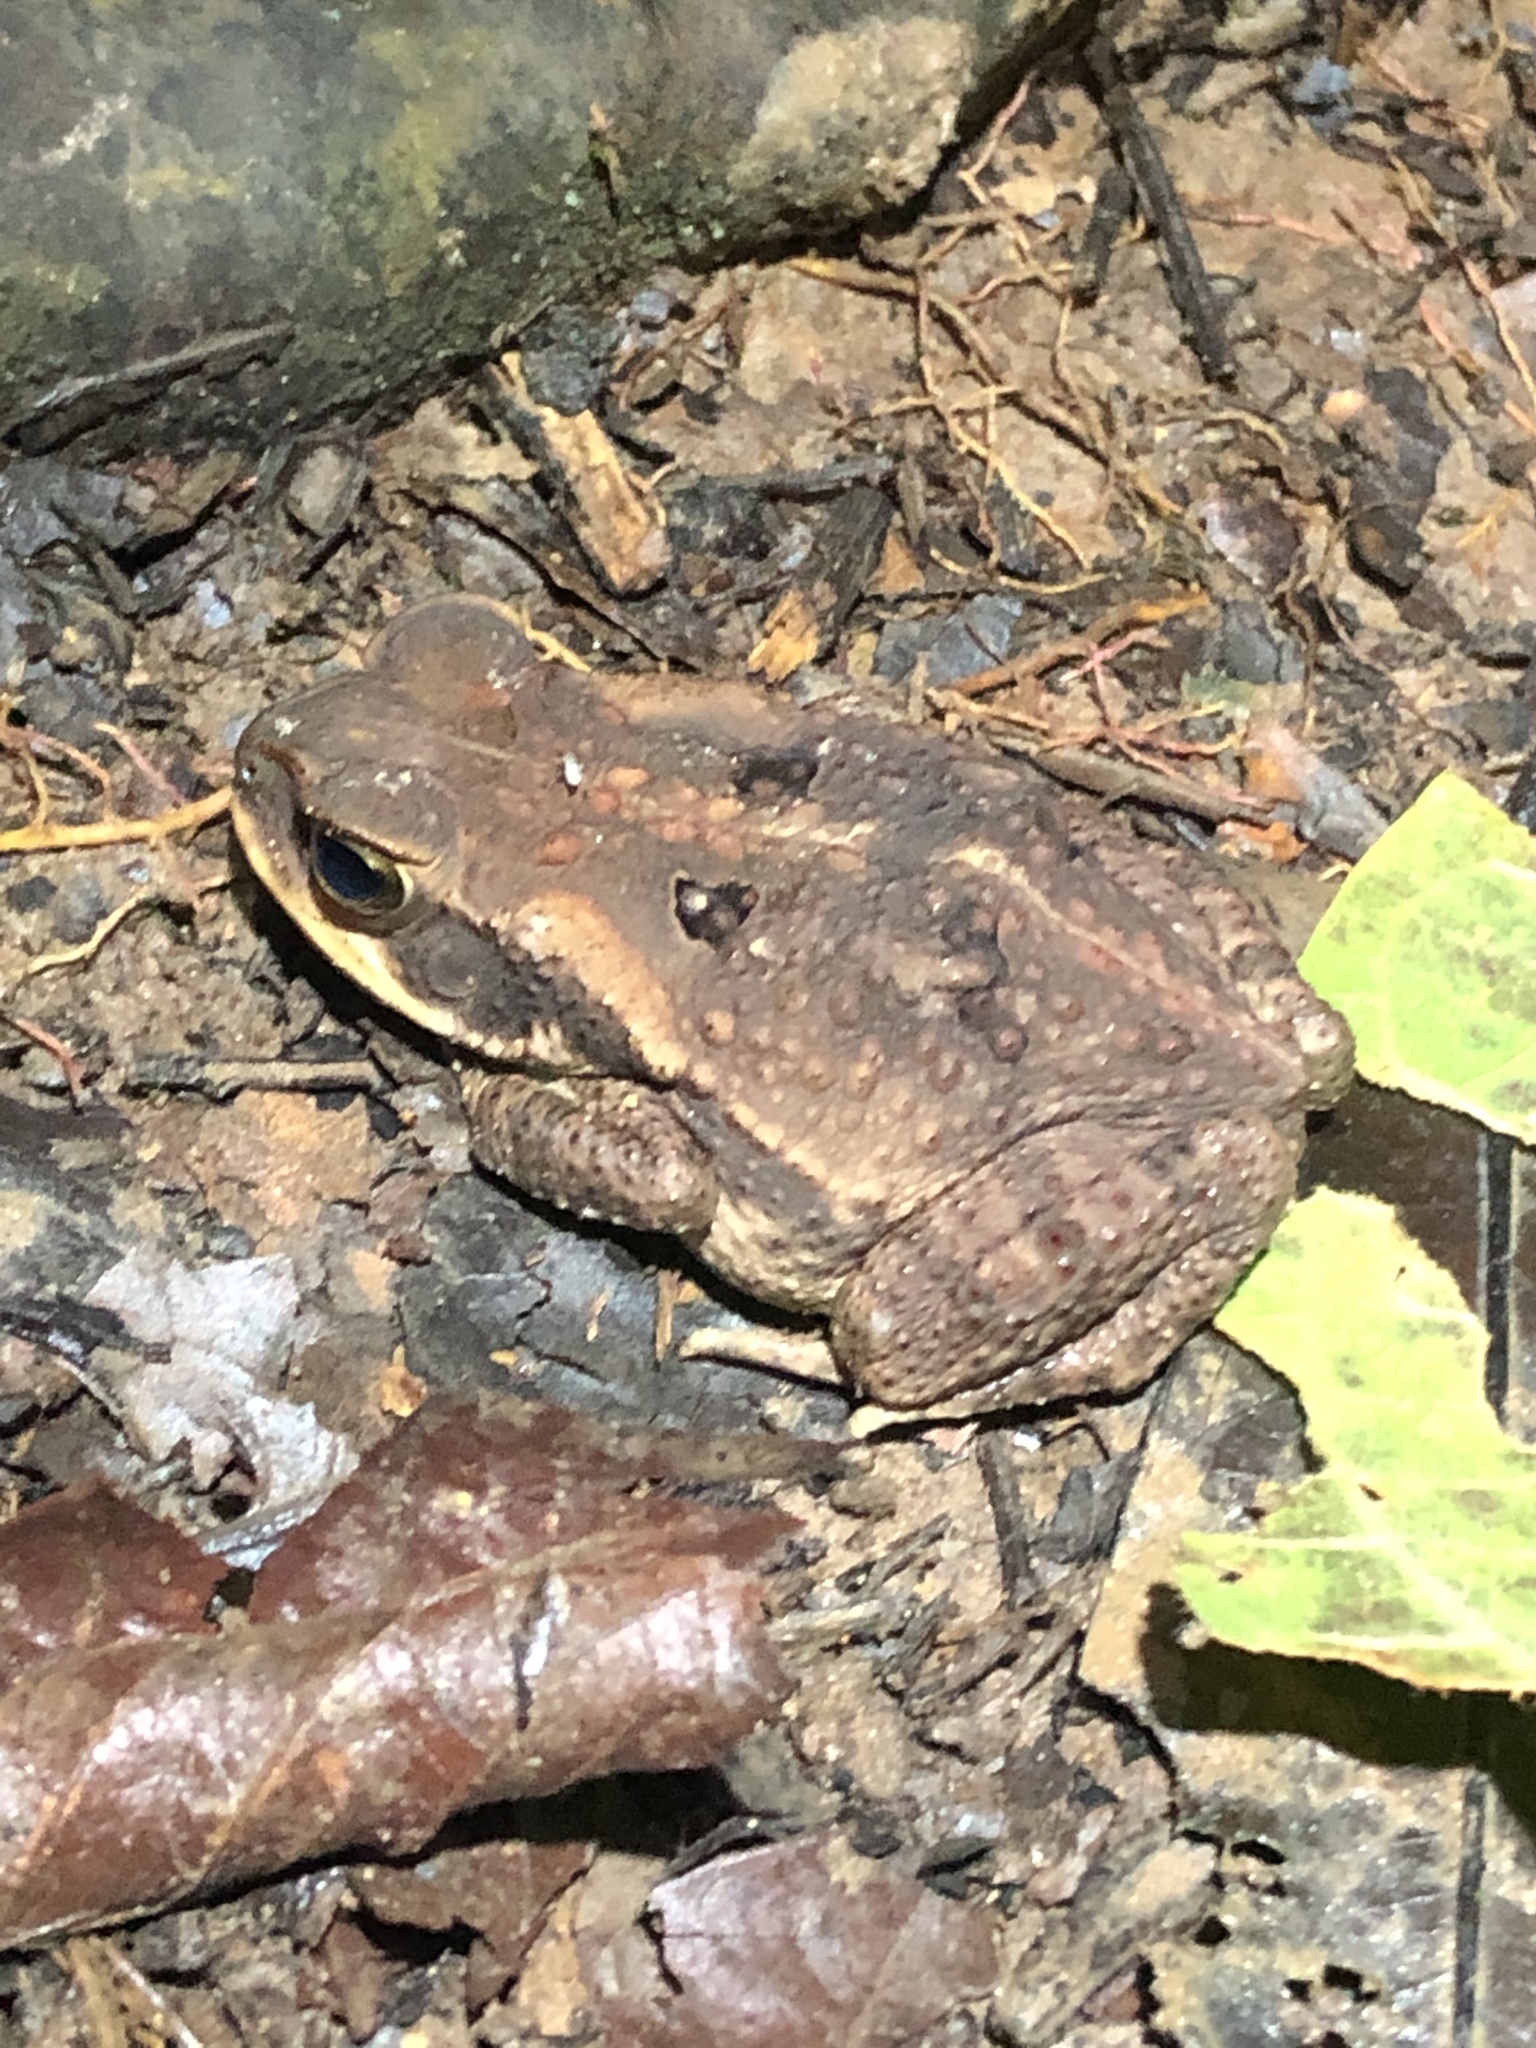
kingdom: Animalia
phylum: Chordata
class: Amphibia
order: Anura
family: Bufonidae
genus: Rhinella
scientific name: Rhinella marina
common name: Cane toad
